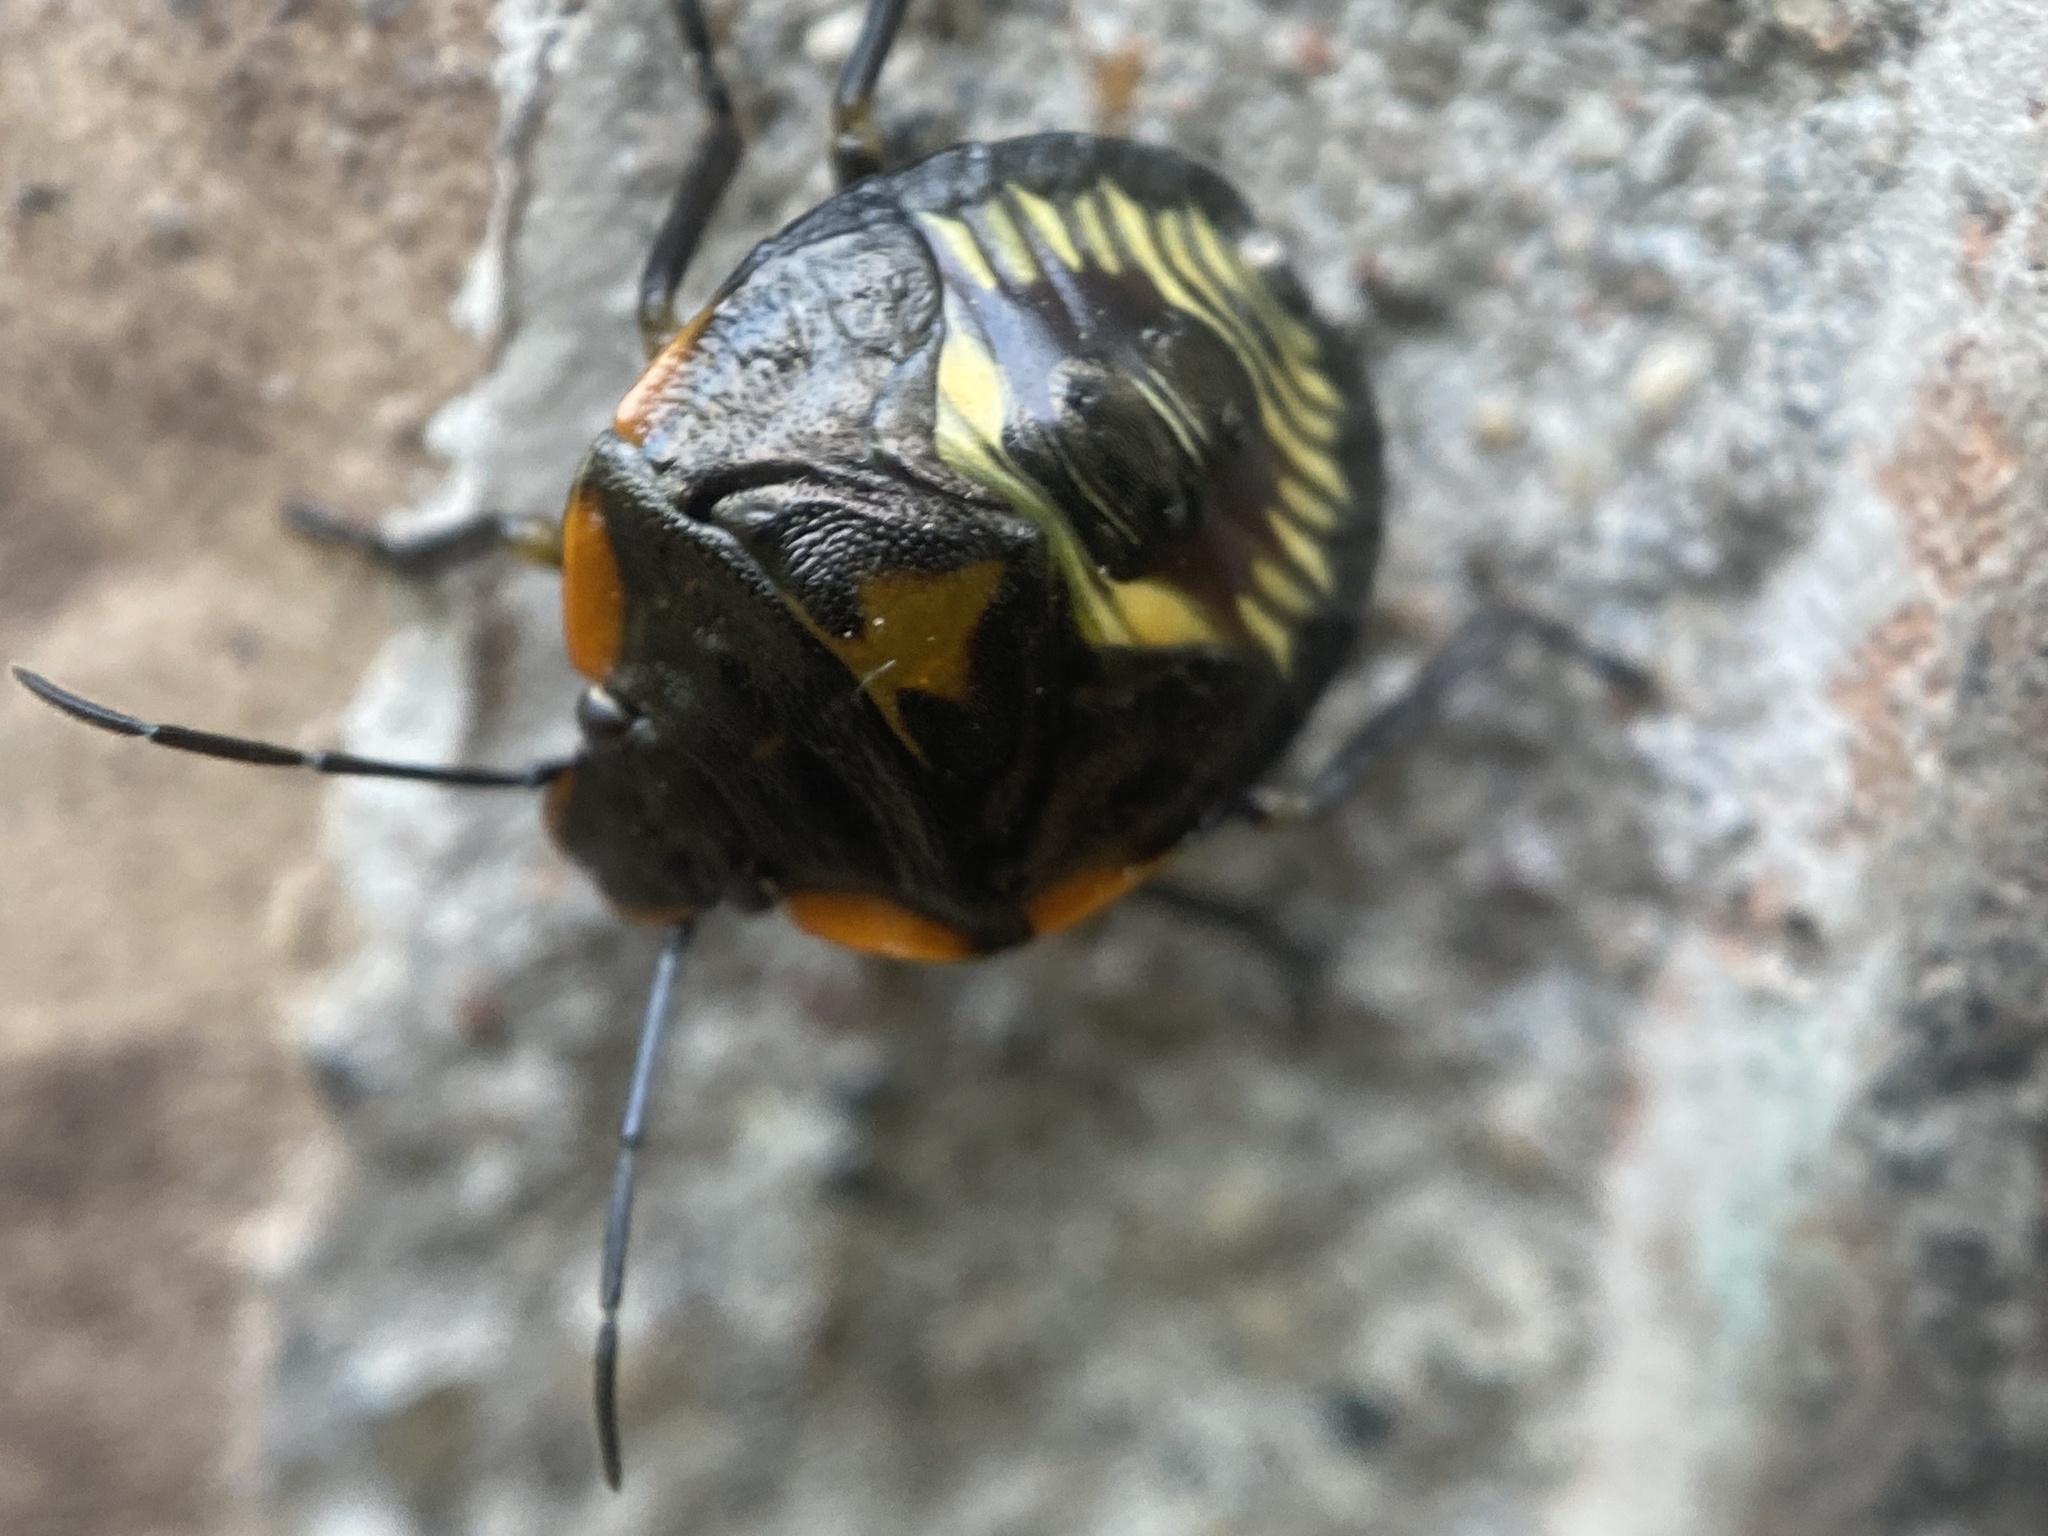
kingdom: Animalia
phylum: Arthropoda
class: Insecta
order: Hemiptera
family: Pentatomidae
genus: Chinavia
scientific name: Chinavia hilaris
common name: Green stink bug
